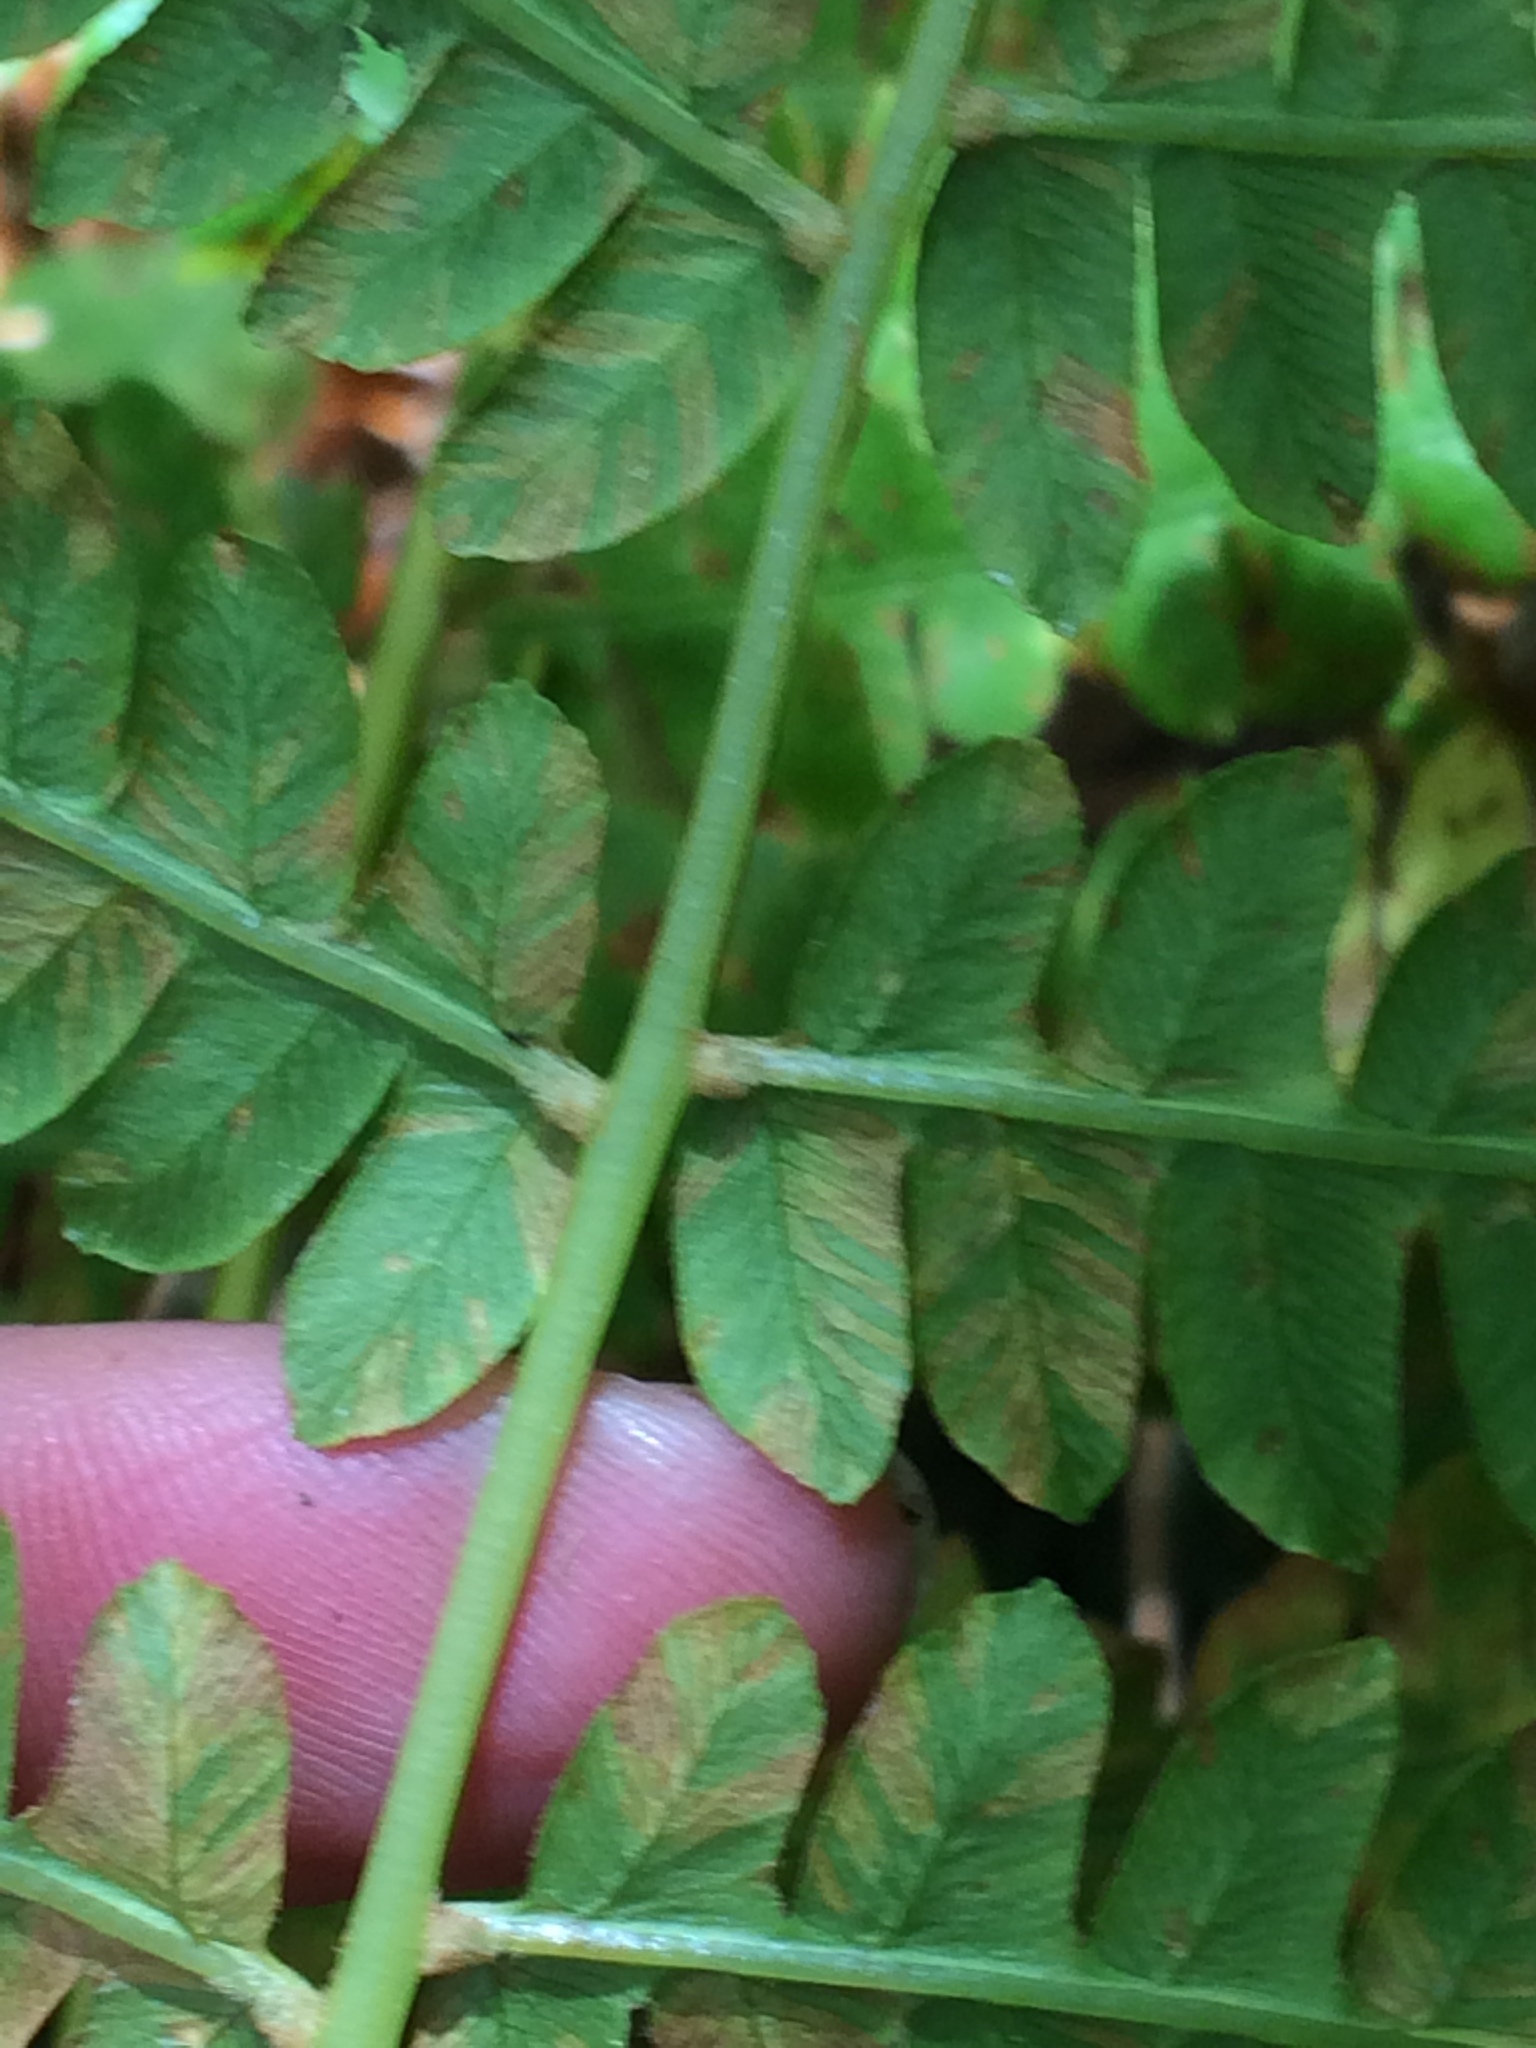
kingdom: Plantae
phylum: Tracheophyta
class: Polypodiopsida
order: Osmundales
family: Osmundaceae
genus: Osmundastrum
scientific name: Osmundastrum cinnamomeum
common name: Cinnamon fern
